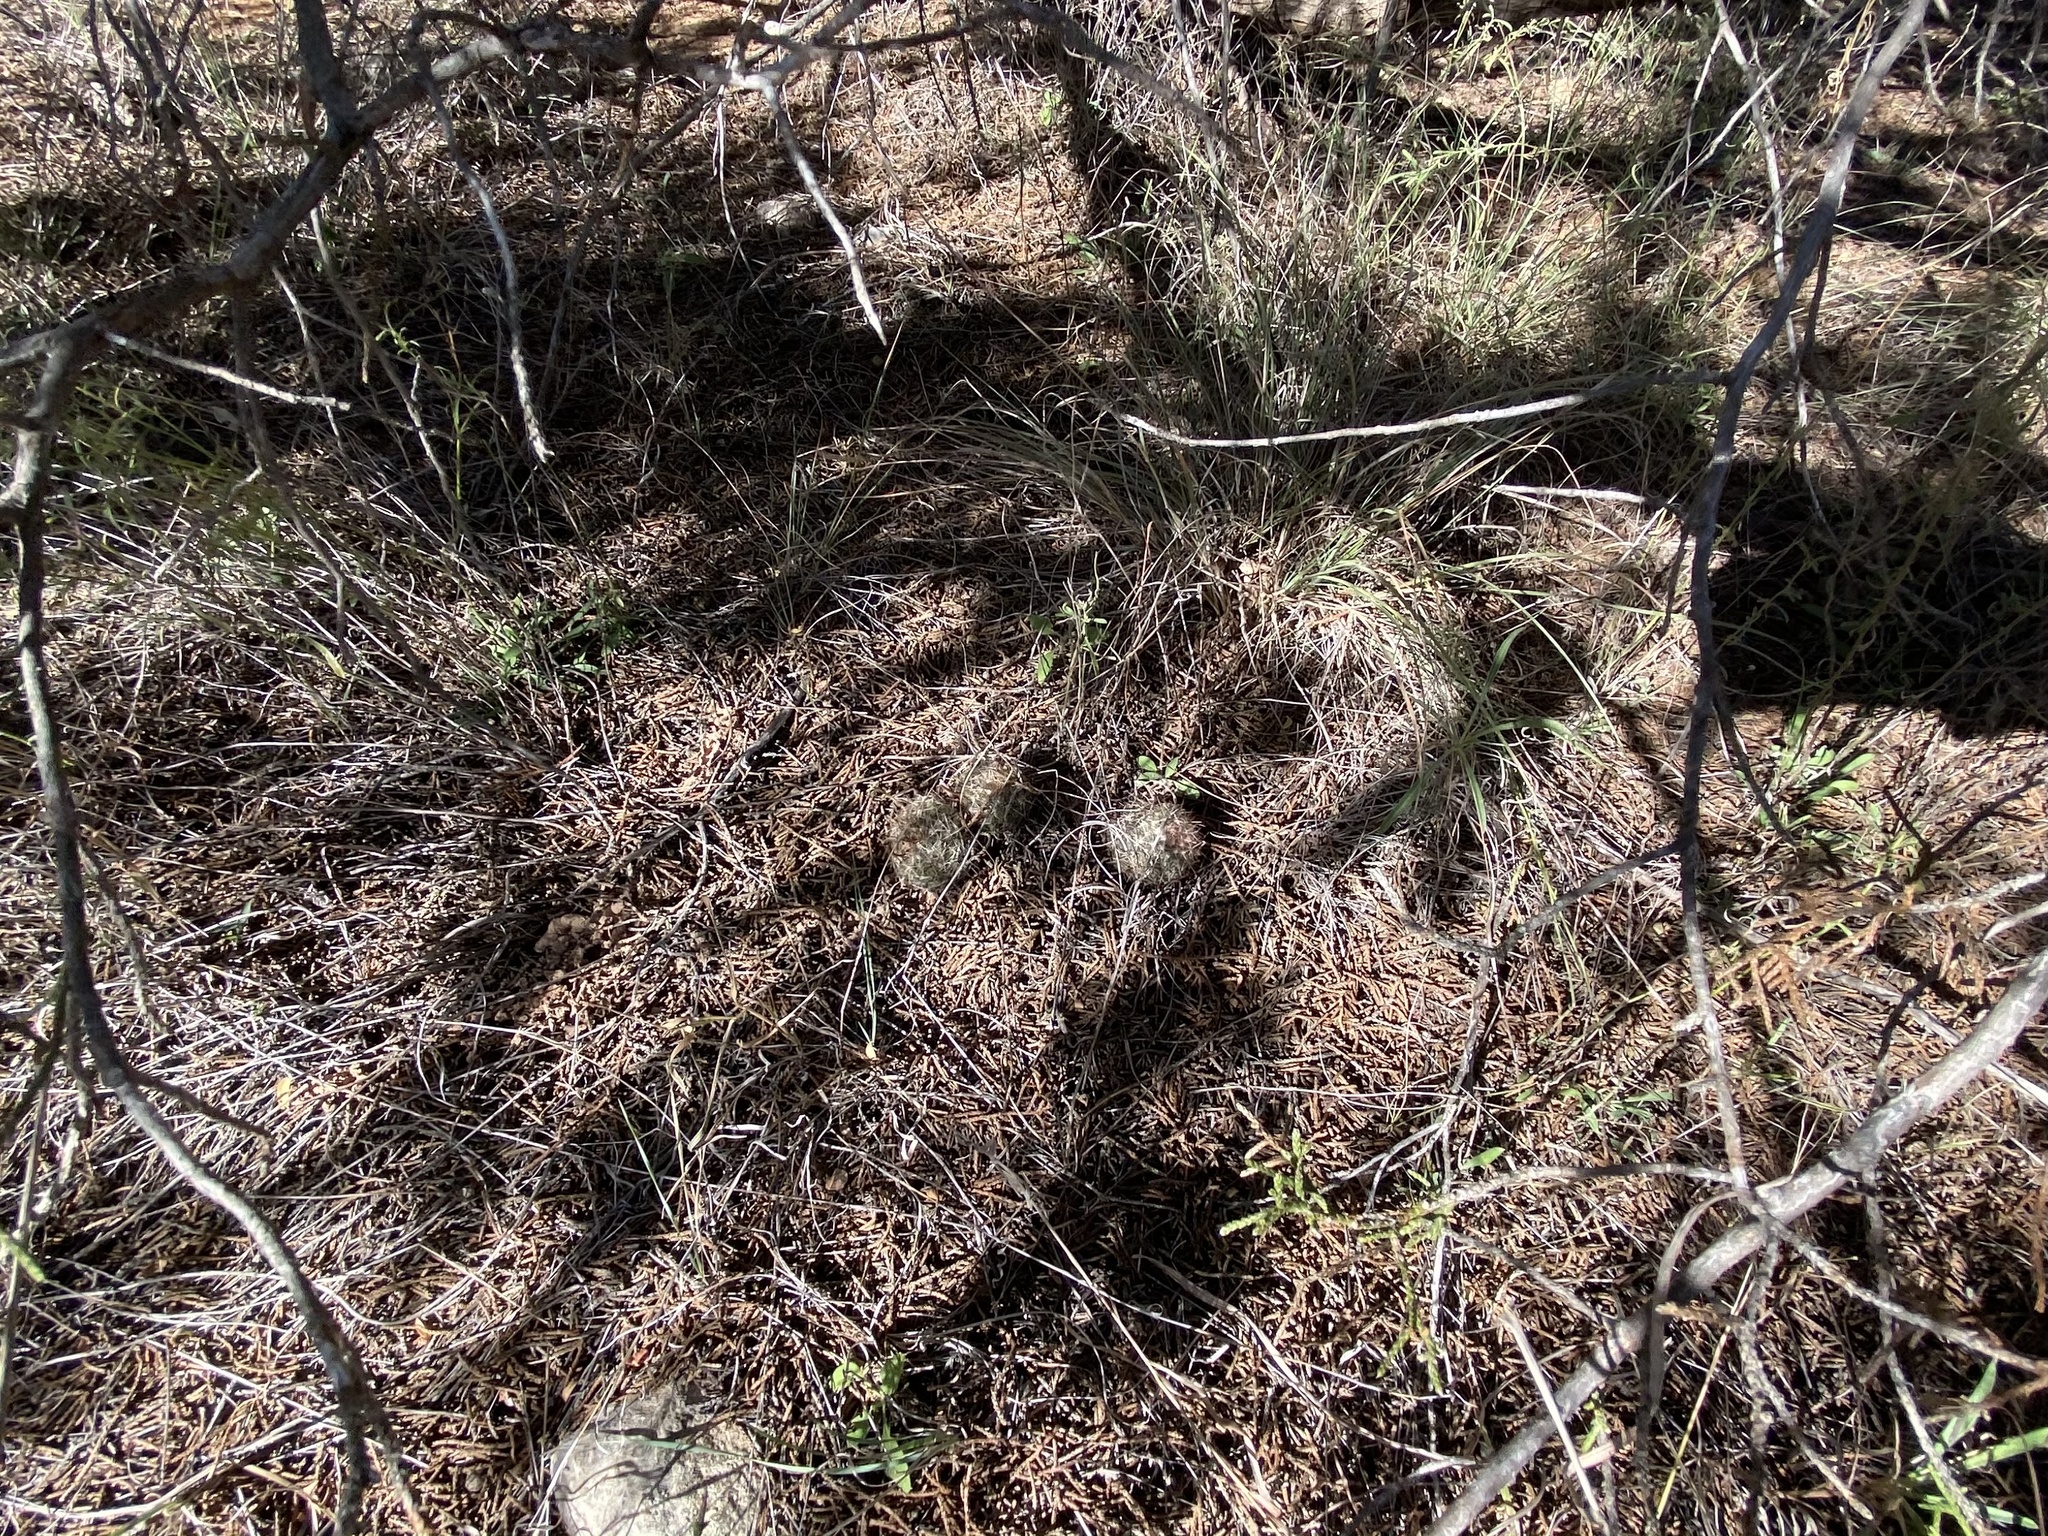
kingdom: Plantae
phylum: Tracheophyta
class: Magnoliopsida
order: Caryophyllales
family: Cactaceae
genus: Pelecyphora
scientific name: Pelecyphora vivipara
